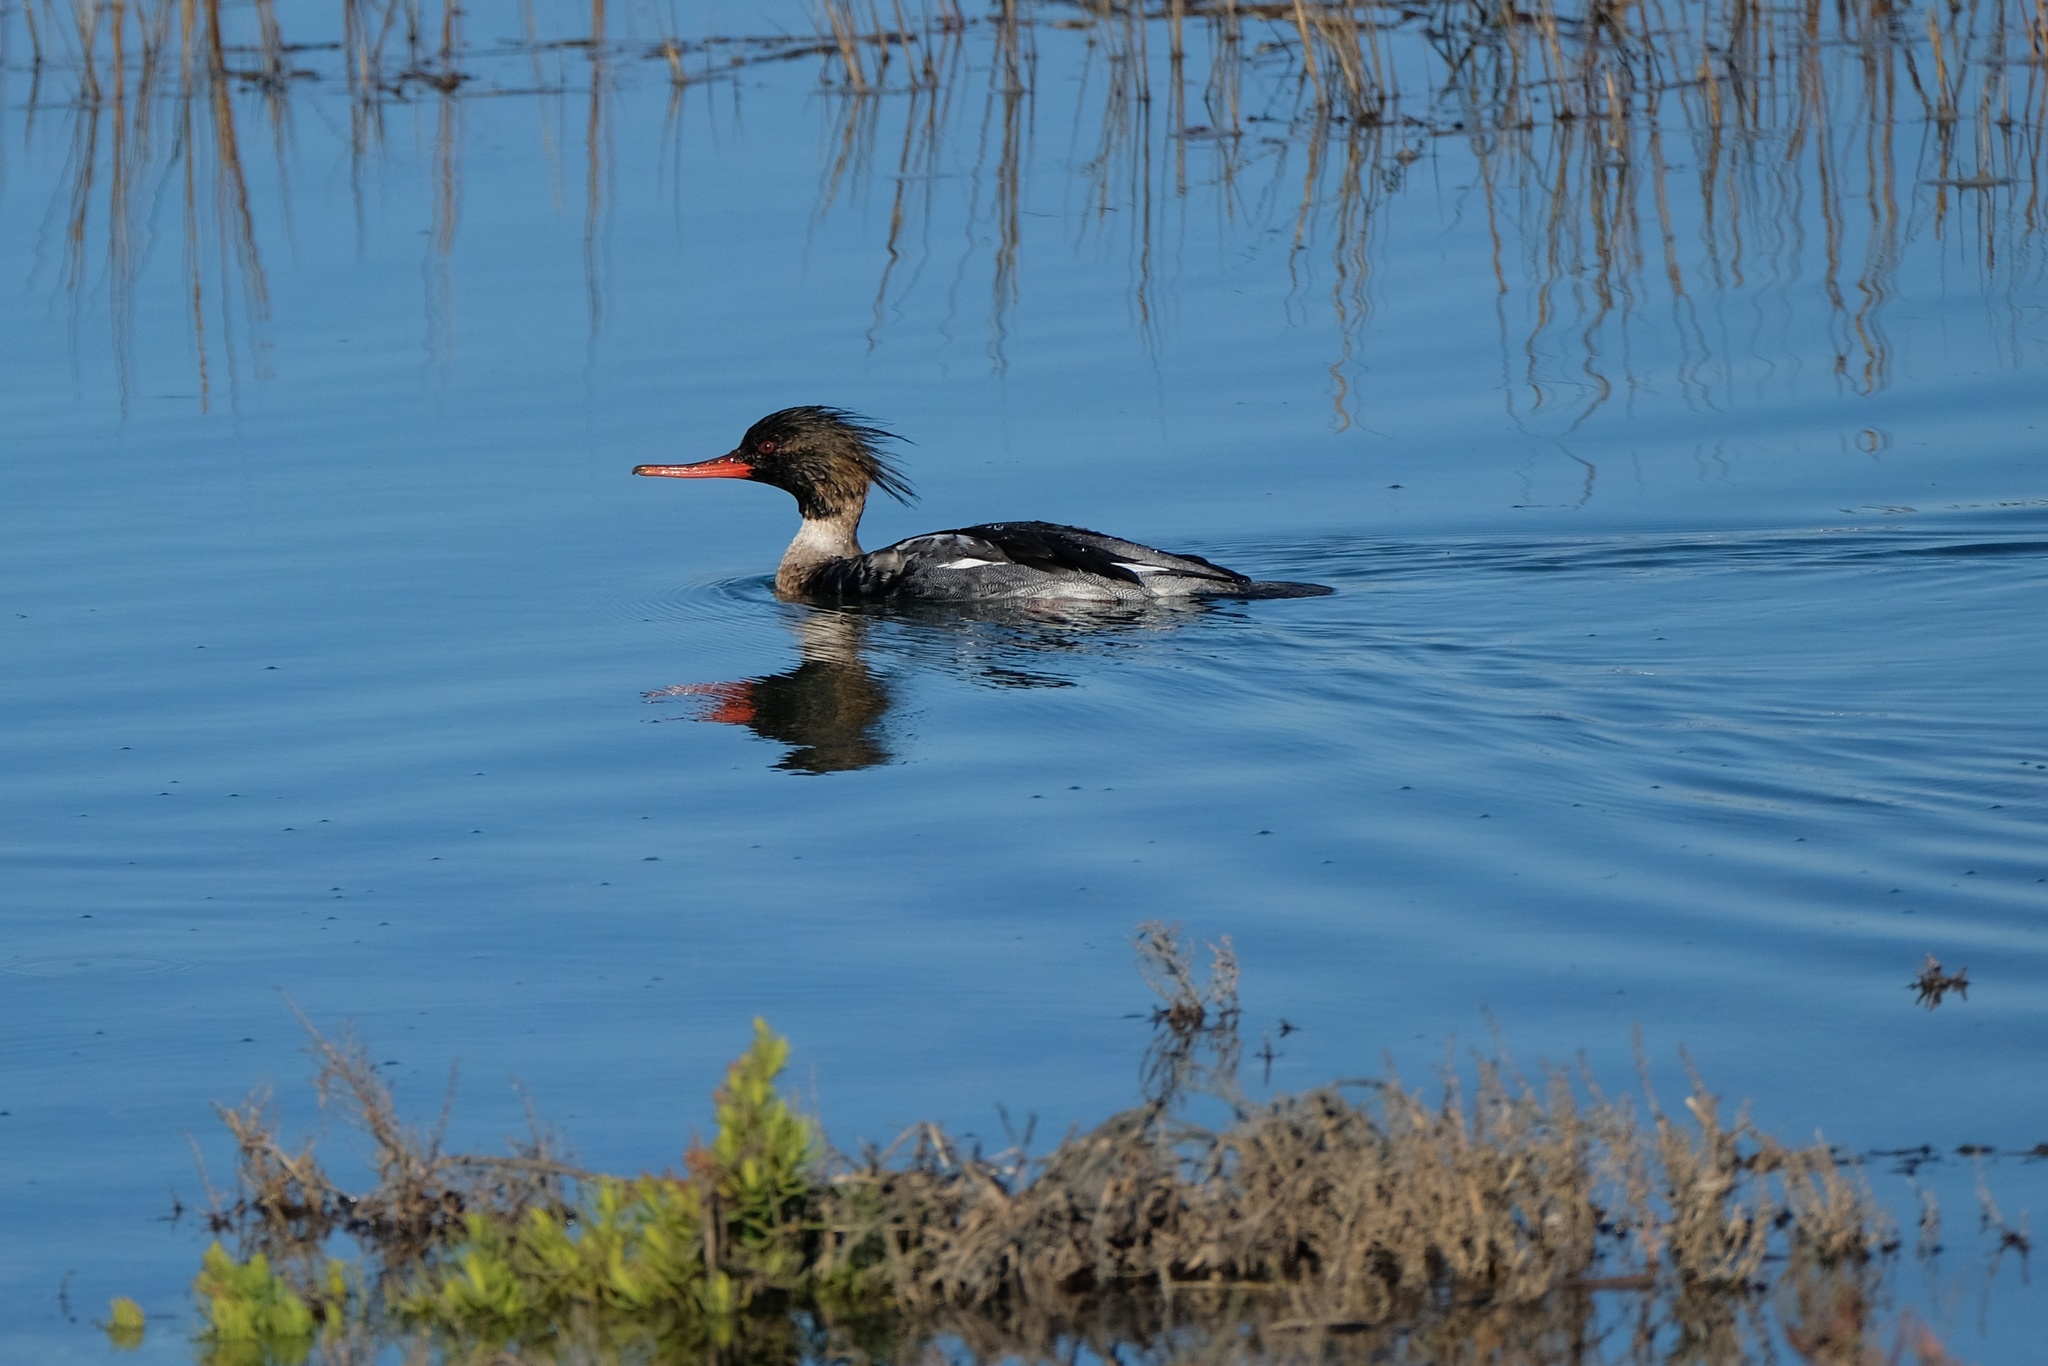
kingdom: Animalia
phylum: Chordata
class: Aves
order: Anseriformes
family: Anatidae
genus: Mergus
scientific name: Mergus serrator
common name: Red-breasted merganser
